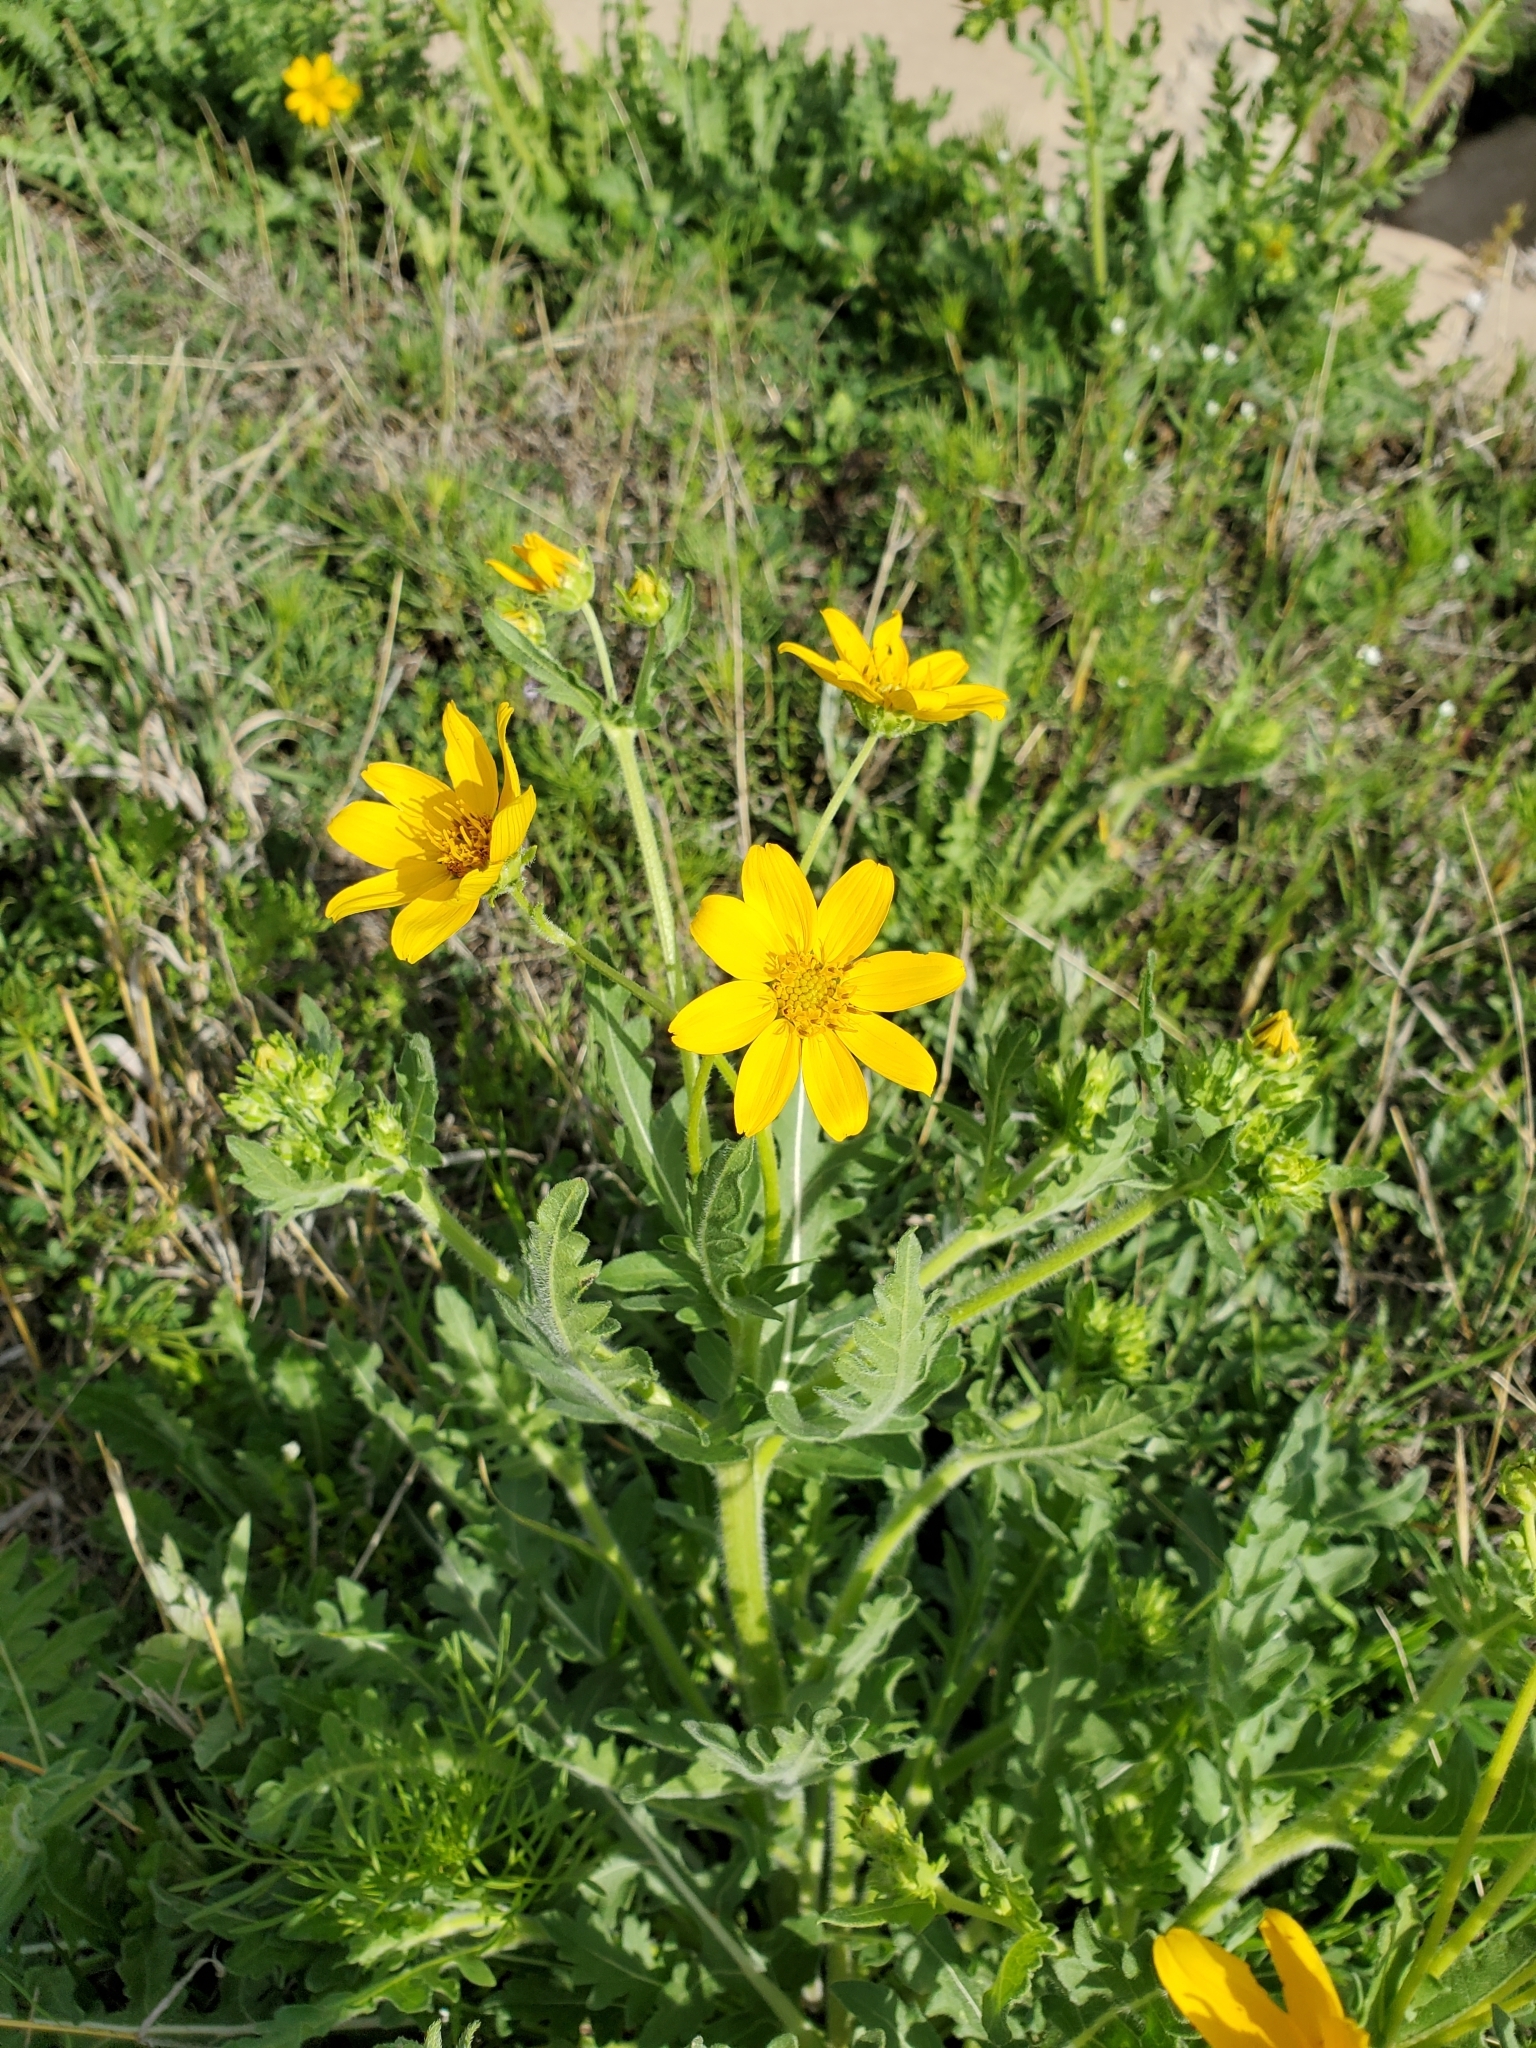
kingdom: Plantae
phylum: Tracheophyta
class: Magnoliopsida
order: Asterales
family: Asteraceae
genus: Engelmannia
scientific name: Engelmannia peristenia
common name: Engelmann's daisy
